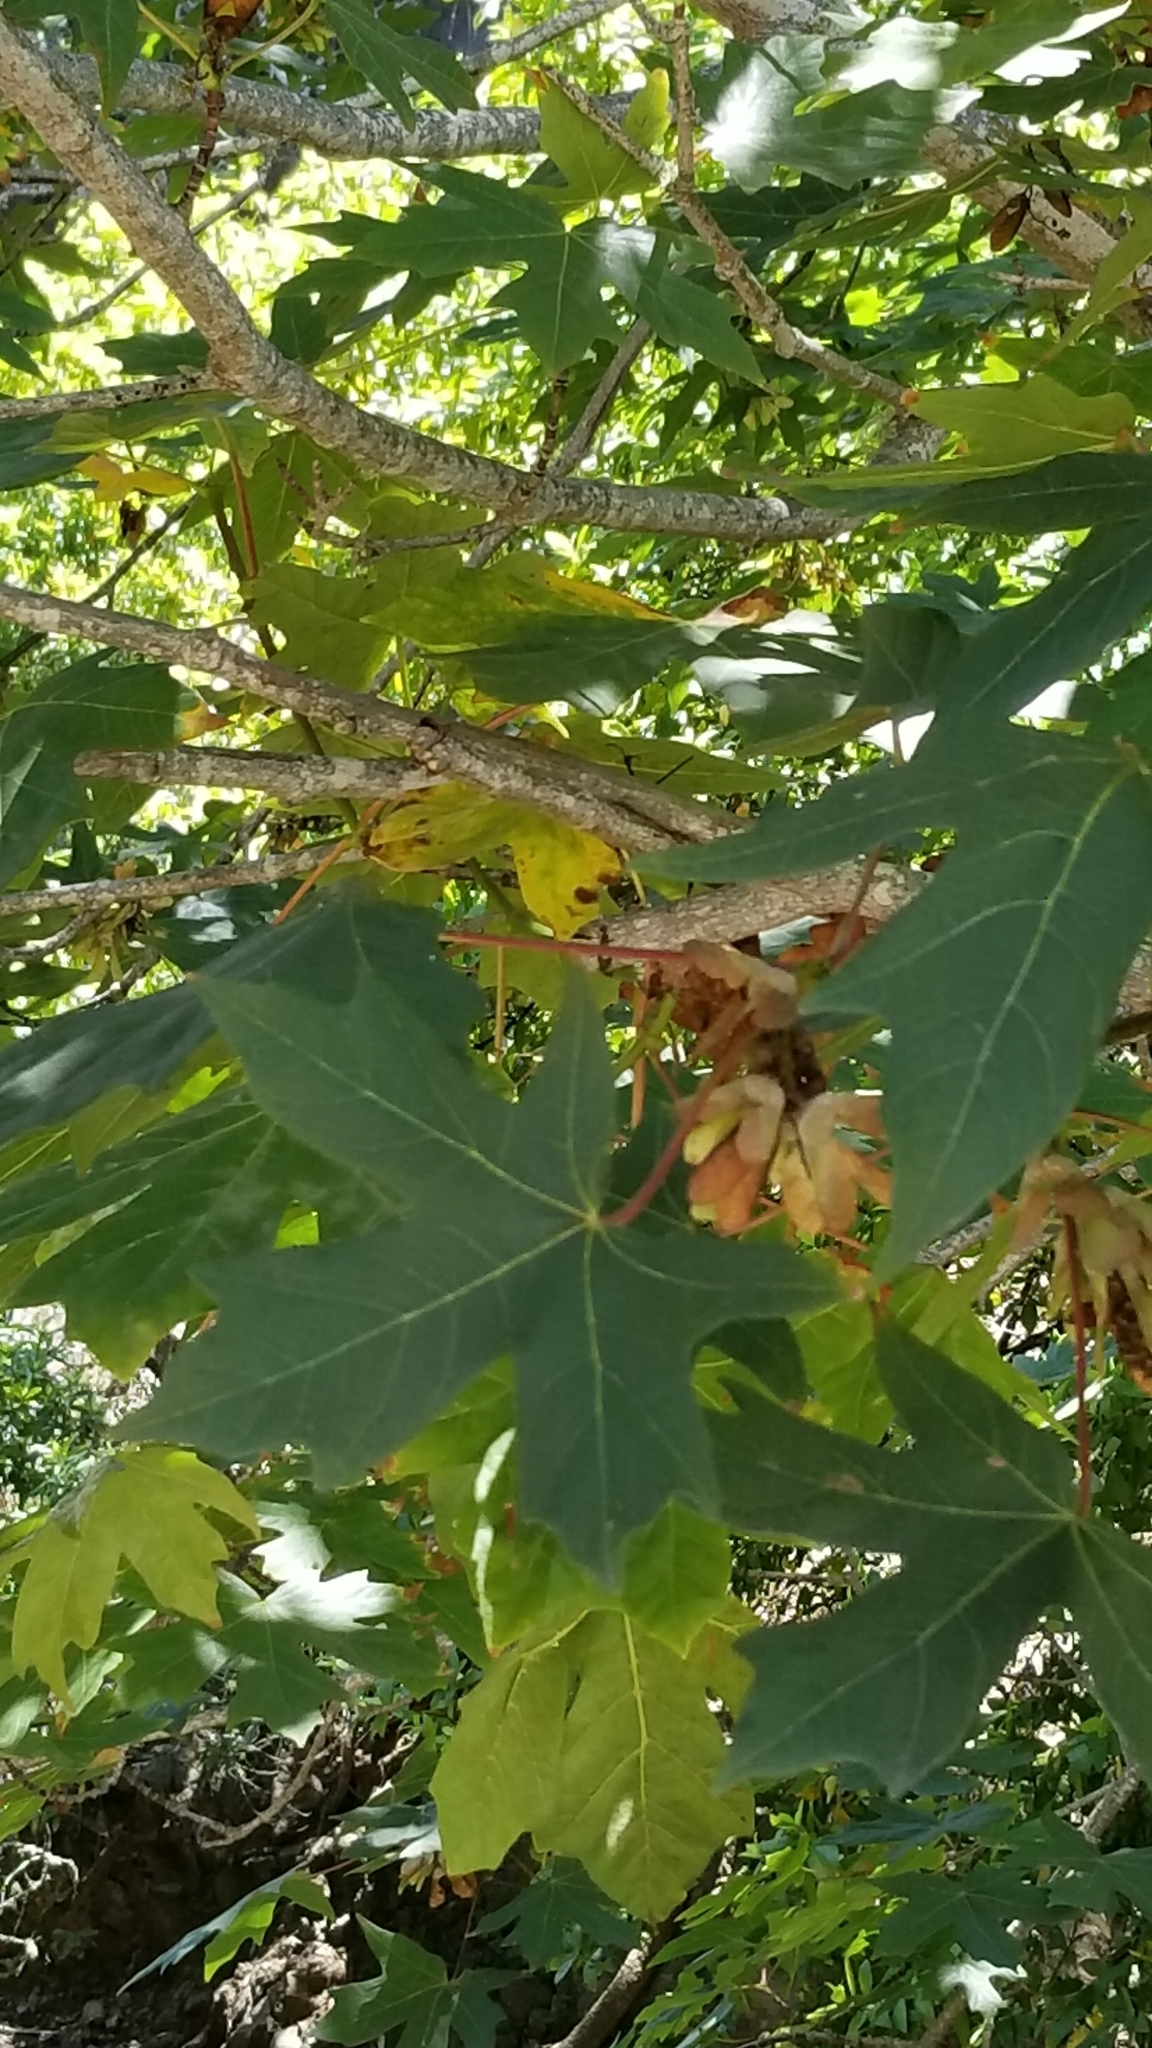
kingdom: Plantae
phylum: Tracheophyta
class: Magnoliopsida
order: Sapindales
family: Sapindaceae
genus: Acer
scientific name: Acer macrophyllum
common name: Oregon maple
